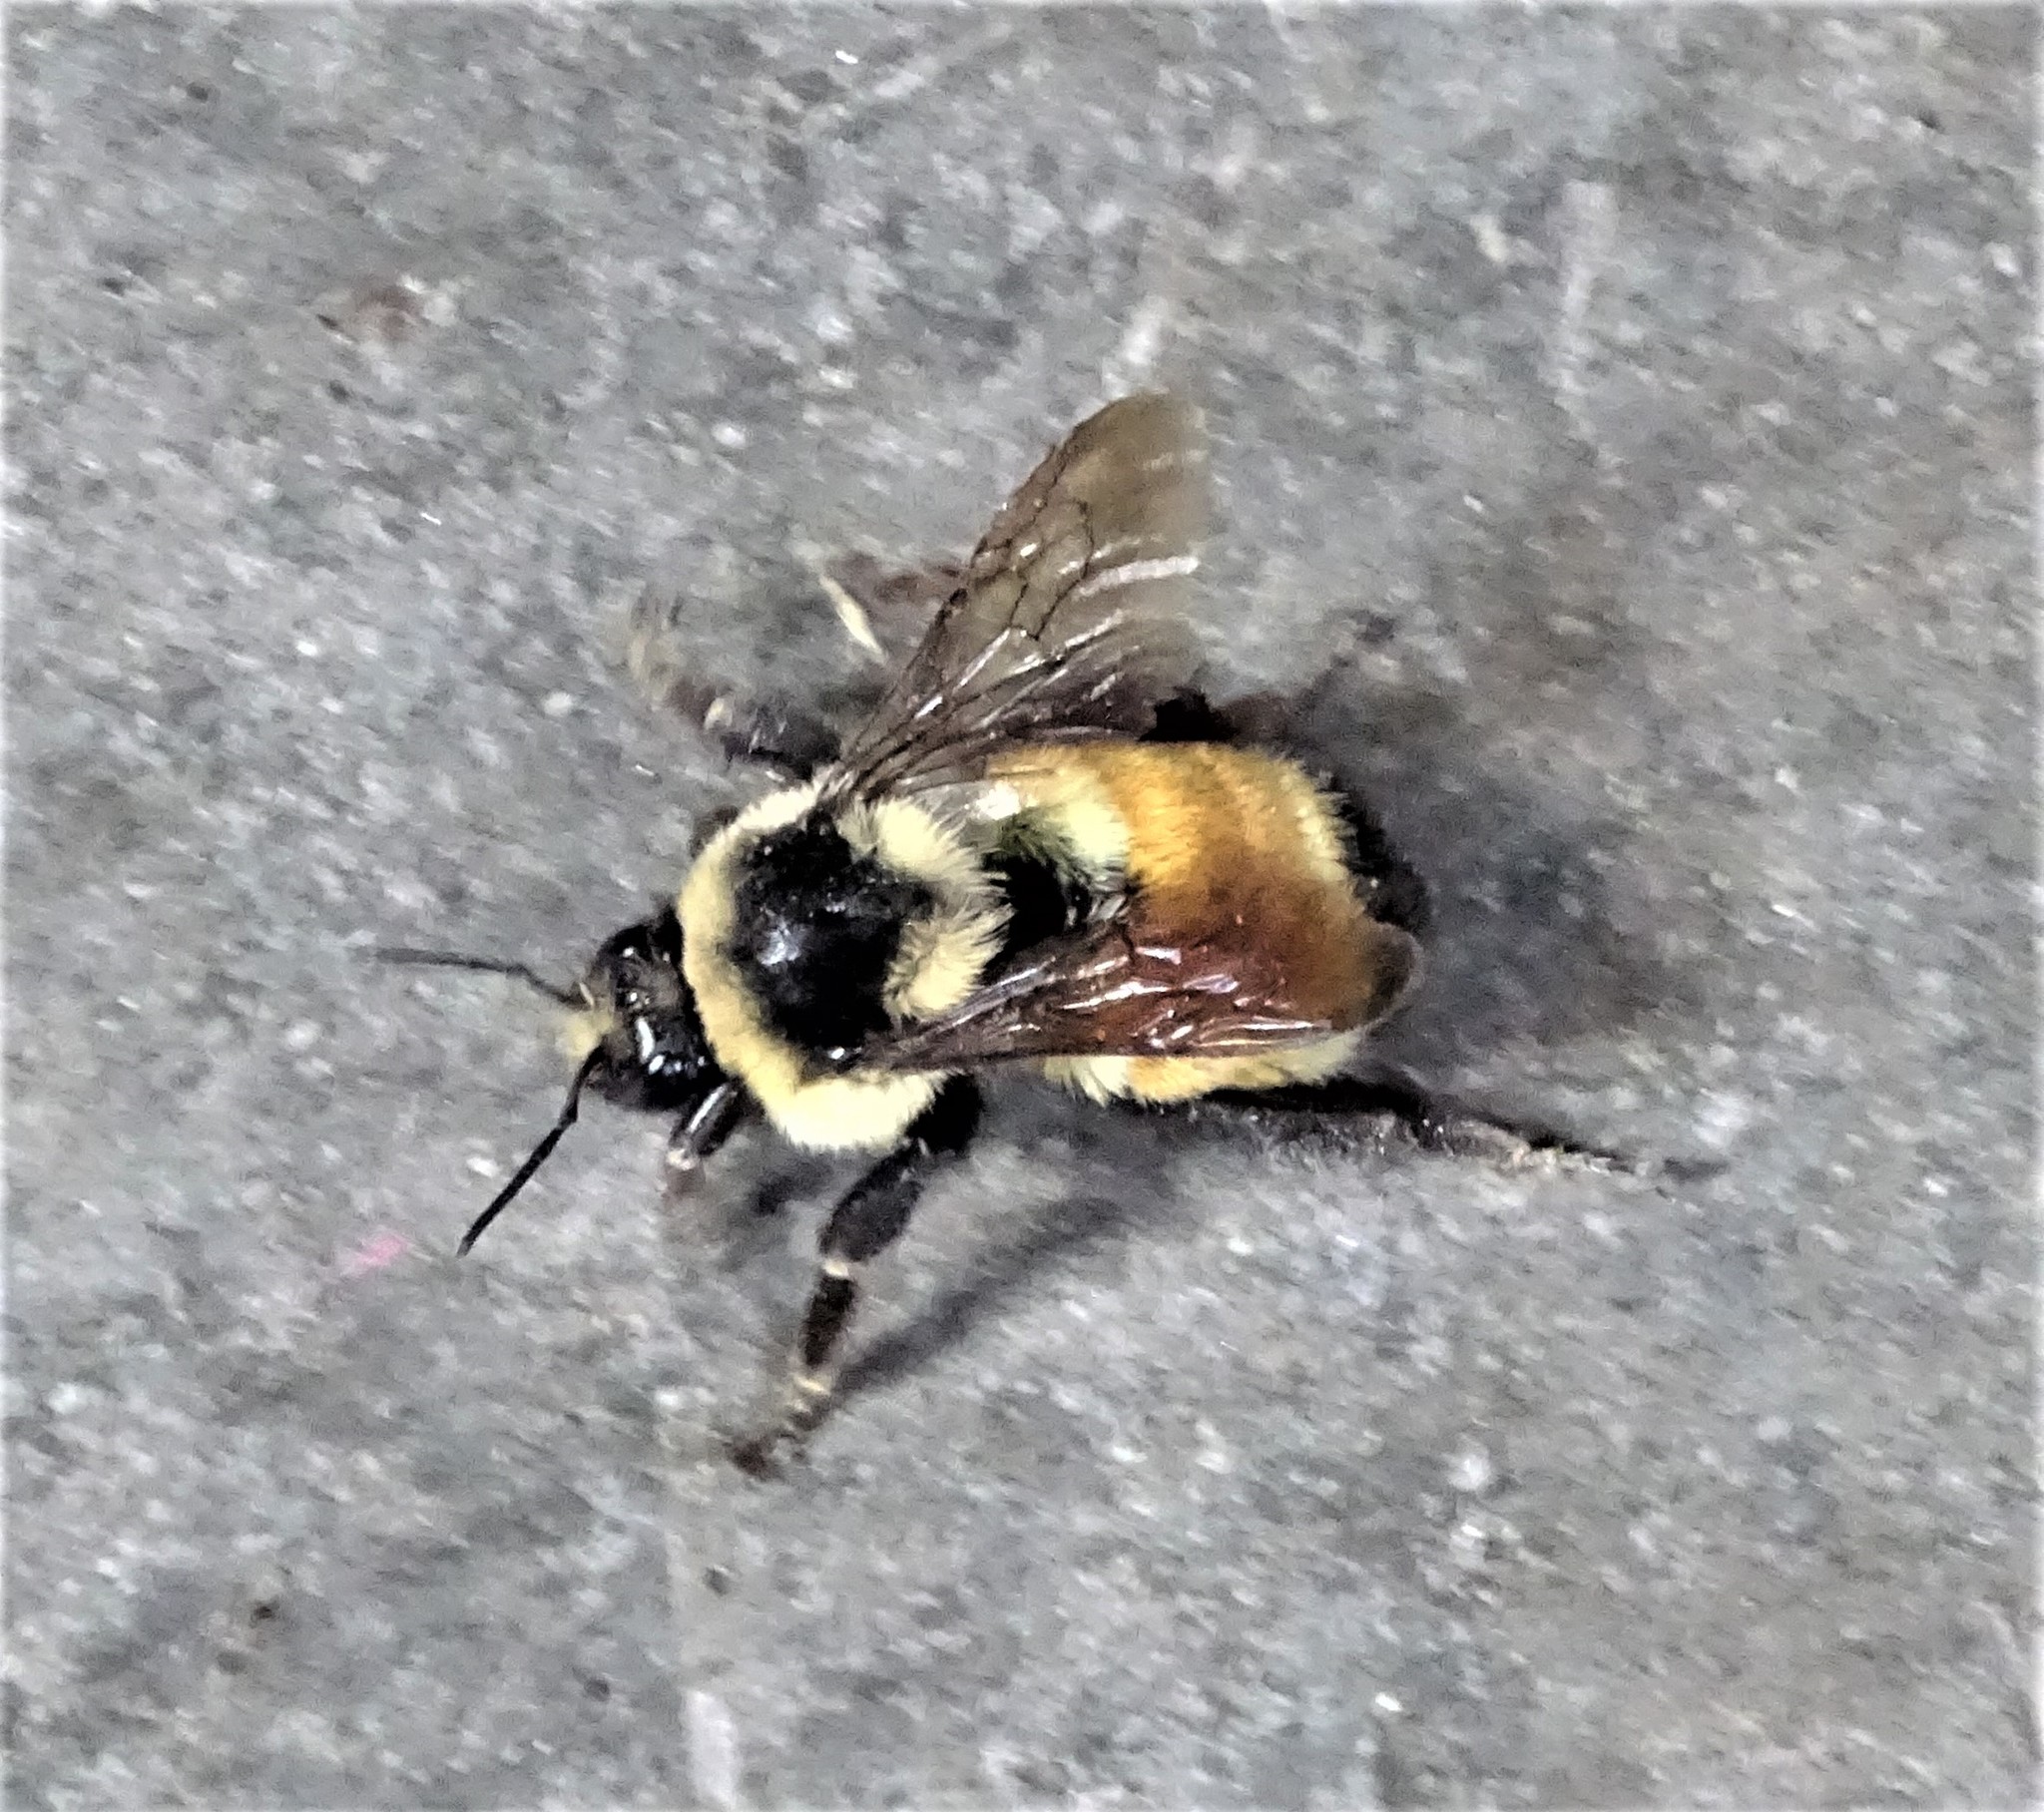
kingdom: Animalia
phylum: Arthropoda
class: Insecta
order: Hymenoptera
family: Apidae
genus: Bombus
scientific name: Bombus ternarius
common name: Tri-colored bumble bee
